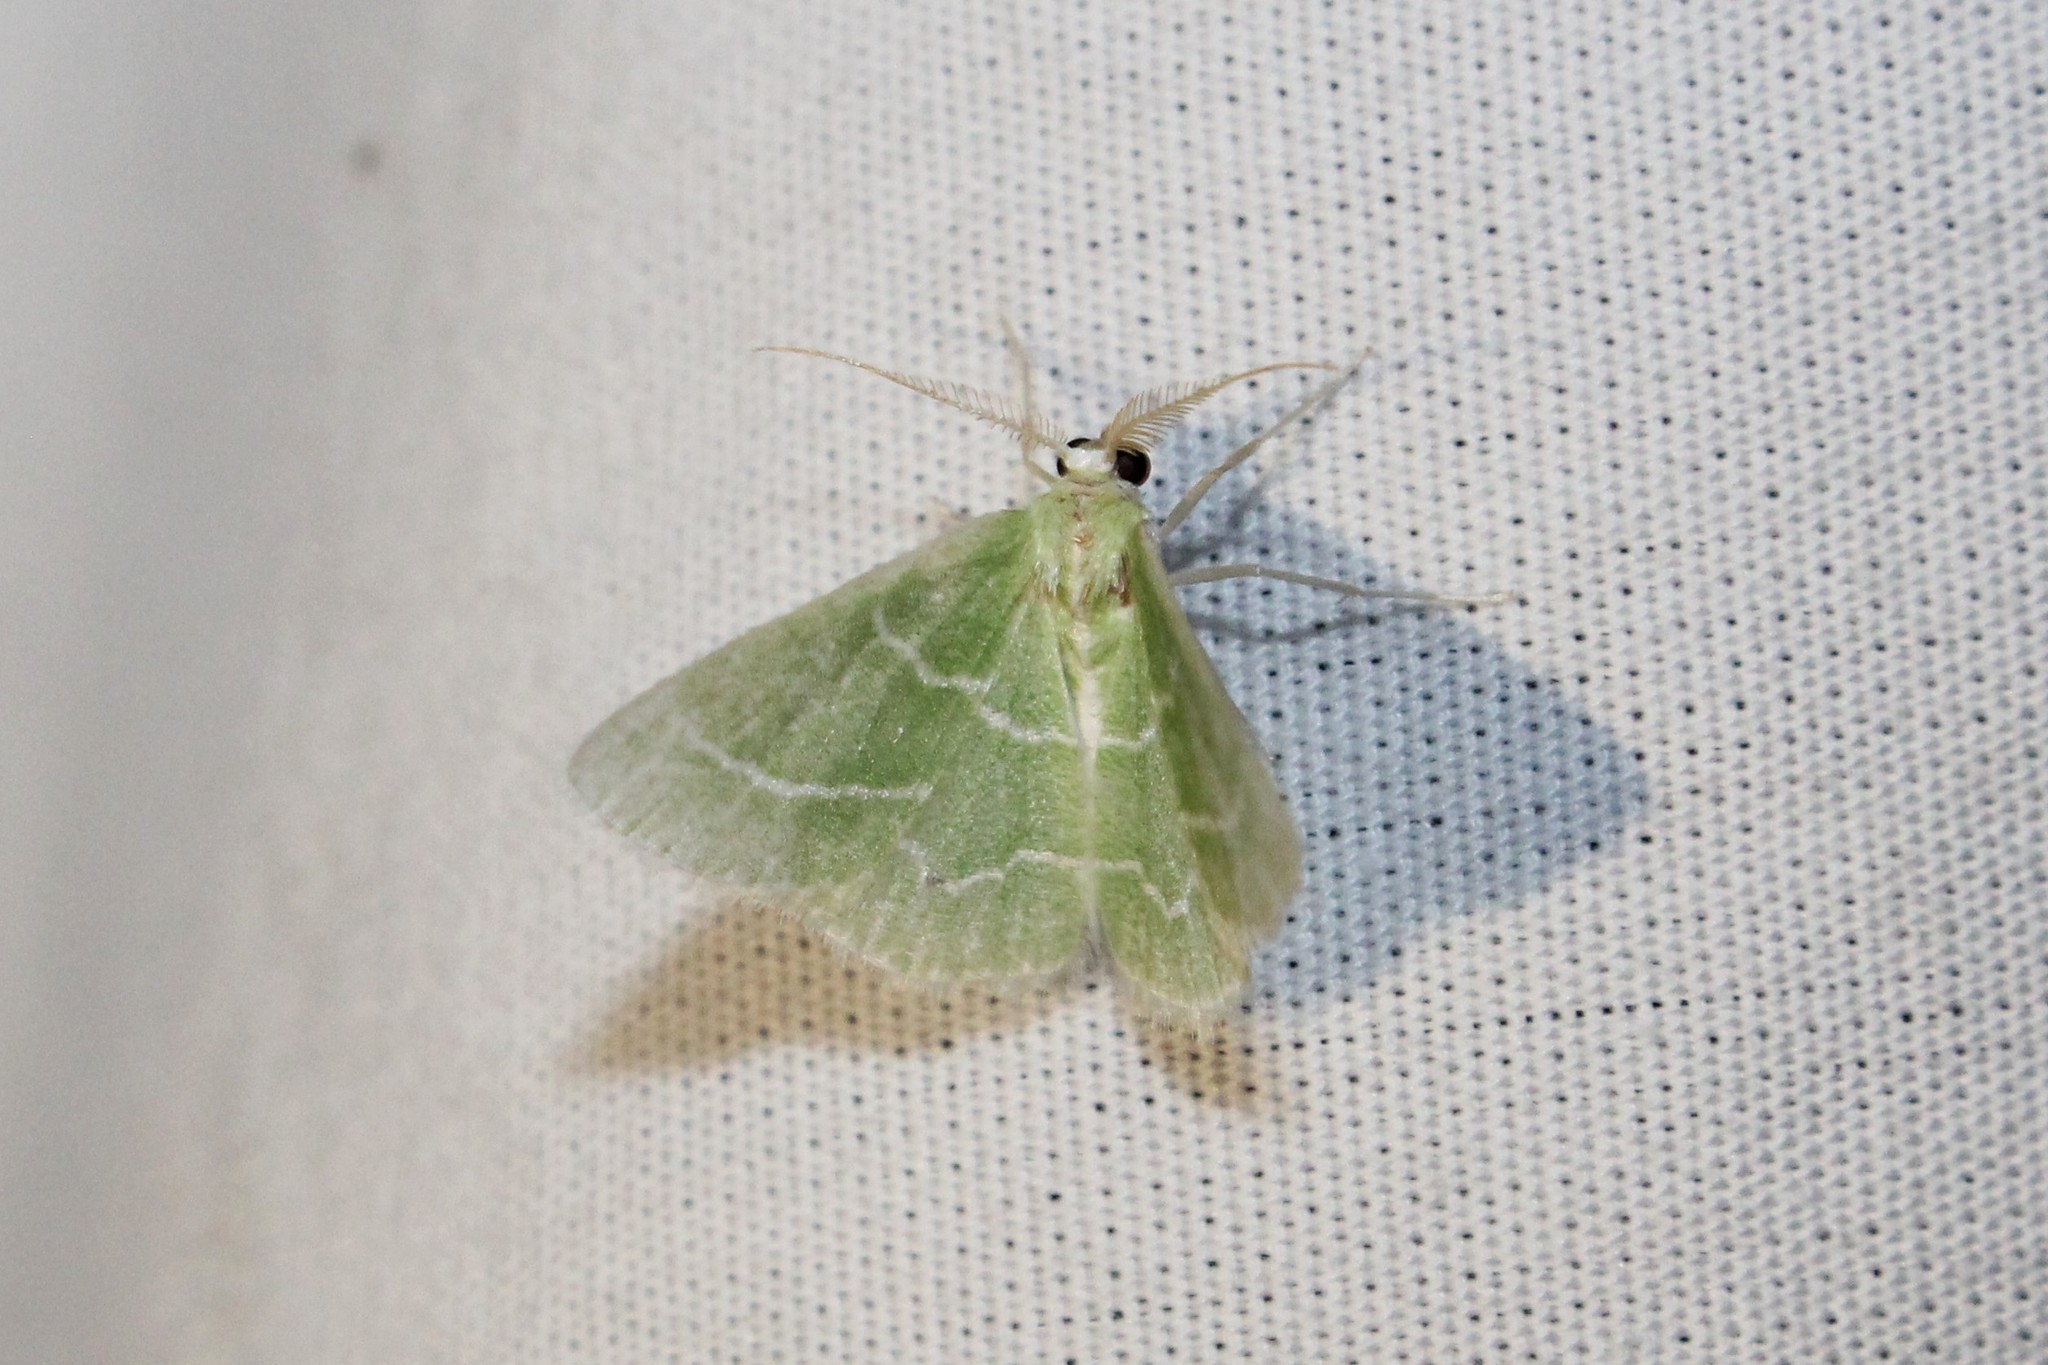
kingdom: Animalia
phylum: Arthropoda
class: Insecta
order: Lepidoptera
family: Geometridae
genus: Synchlora
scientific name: Synchlora aerata
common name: Wavy-lined emerald
